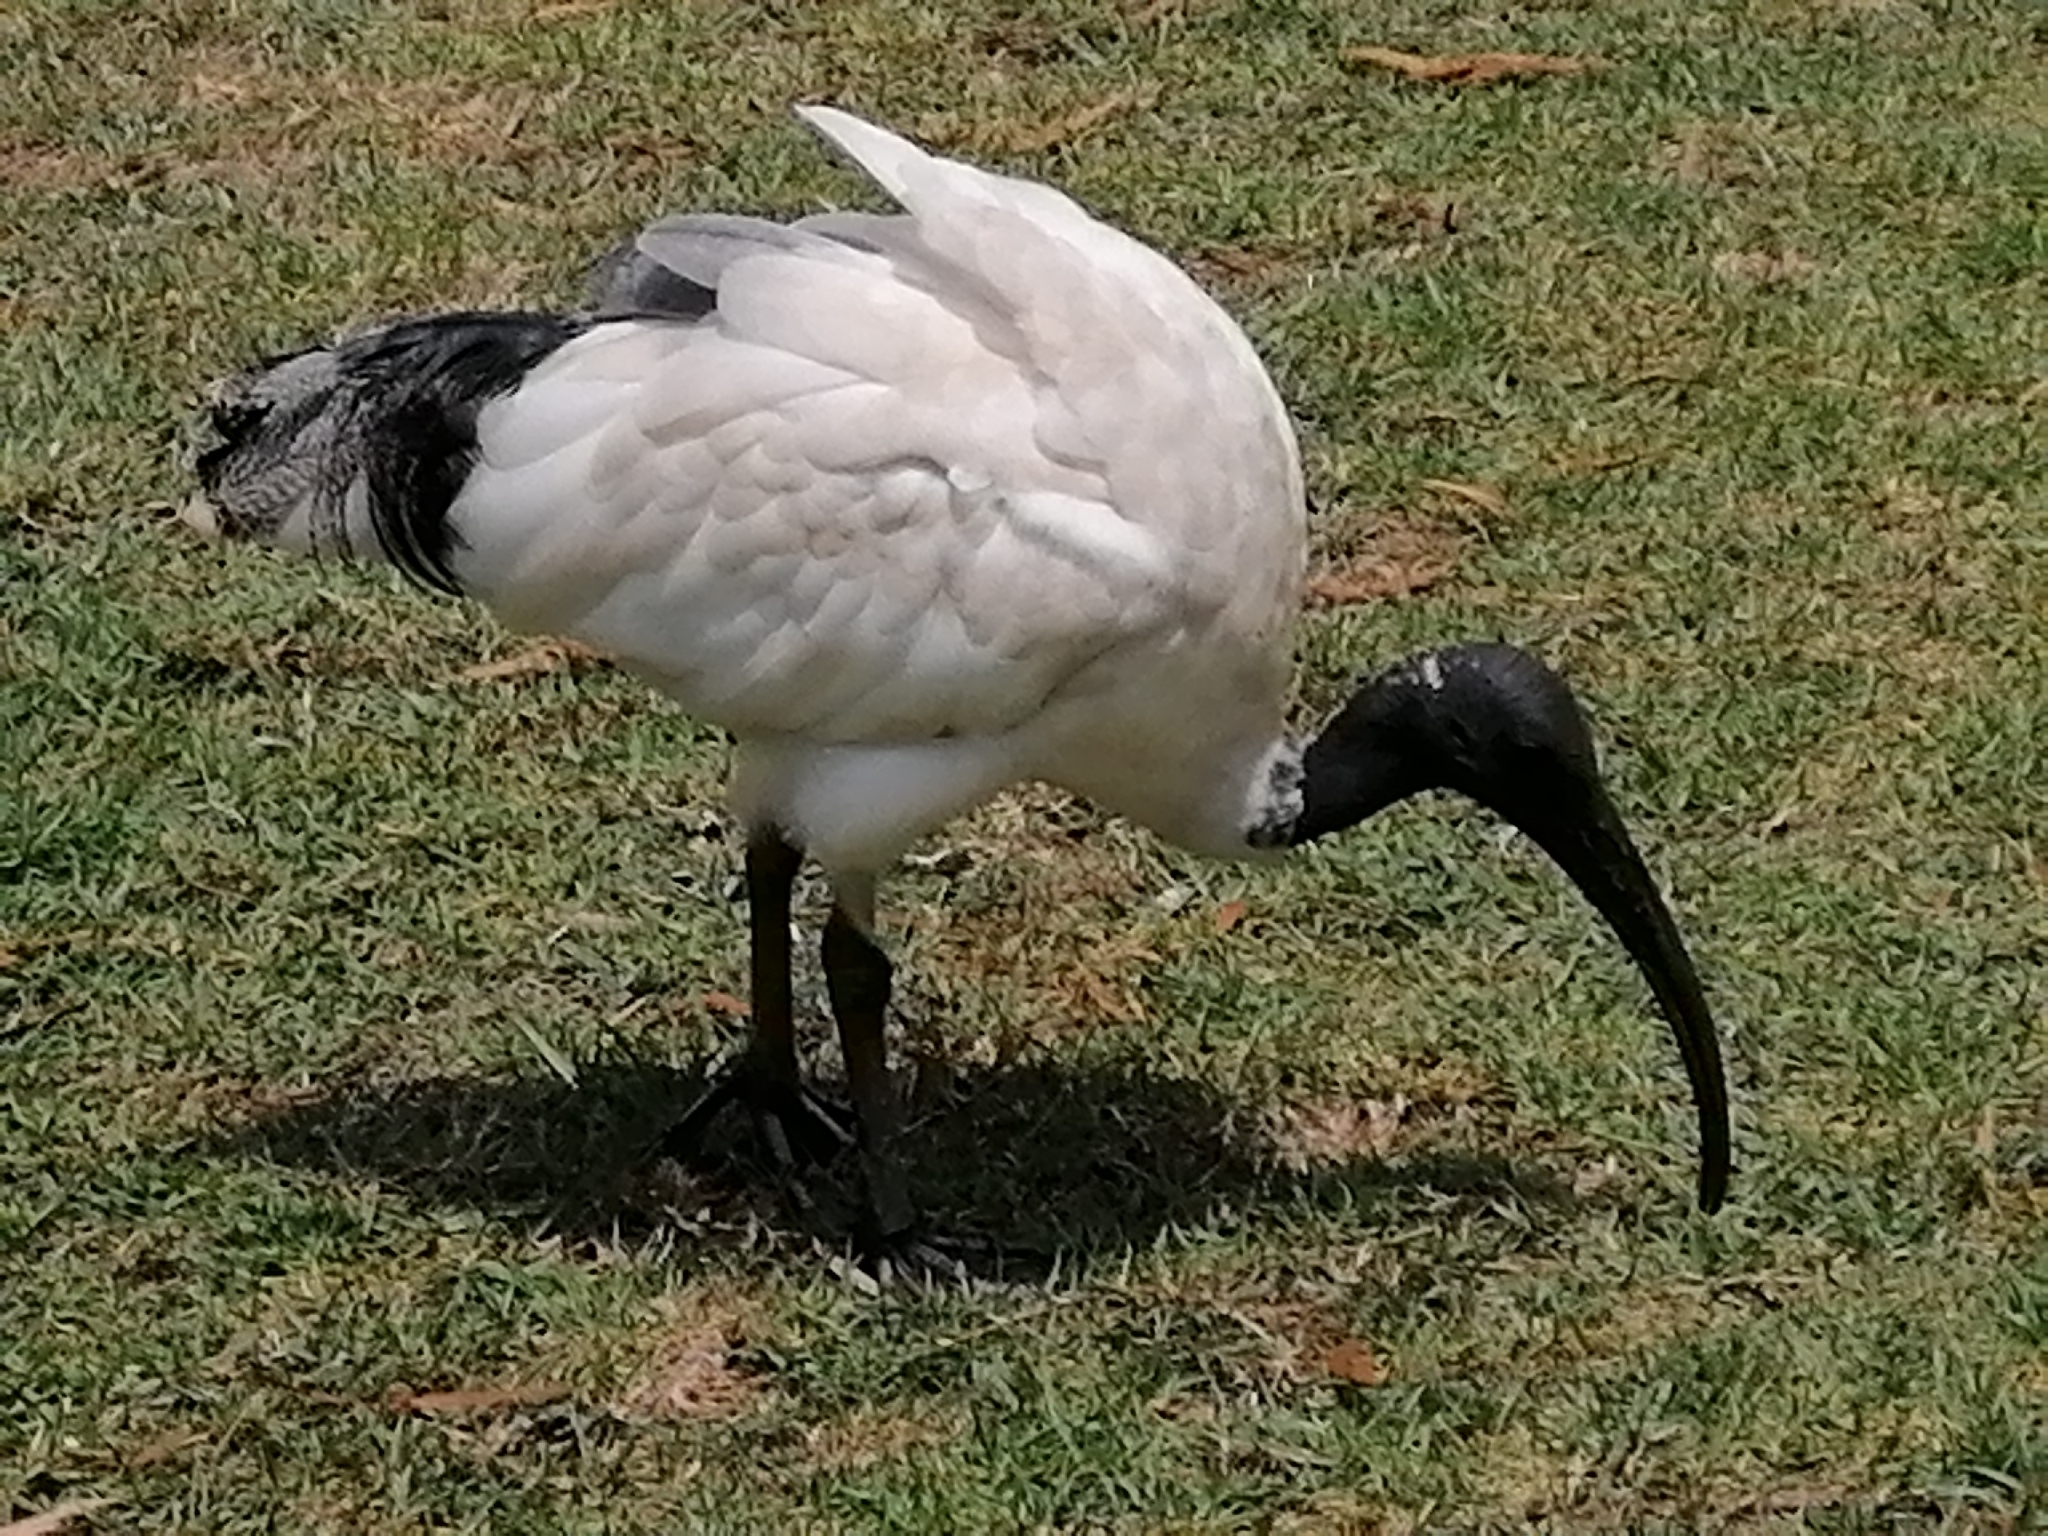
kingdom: Animalia
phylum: Chordata
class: Aves
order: Pelecaniformes
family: Threskiornithidae
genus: Threskiornis
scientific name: Threskiornis molucca
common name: Australian white ibis
